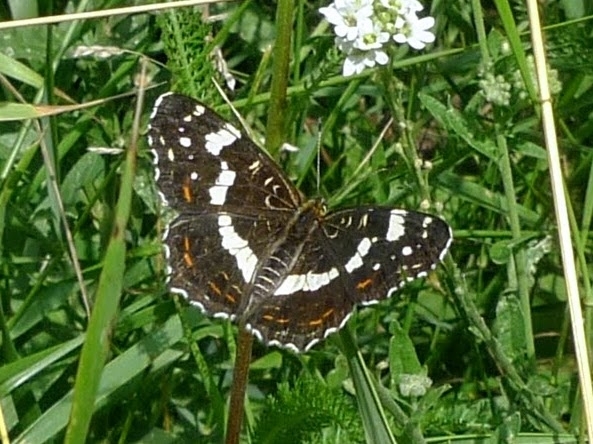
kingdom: Animalia
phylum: Arthropoda
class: Insecta
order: Lepidoptera
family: Nymphalidae
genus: Araschnia
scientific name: Araschnia levana
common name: Map butterfly
